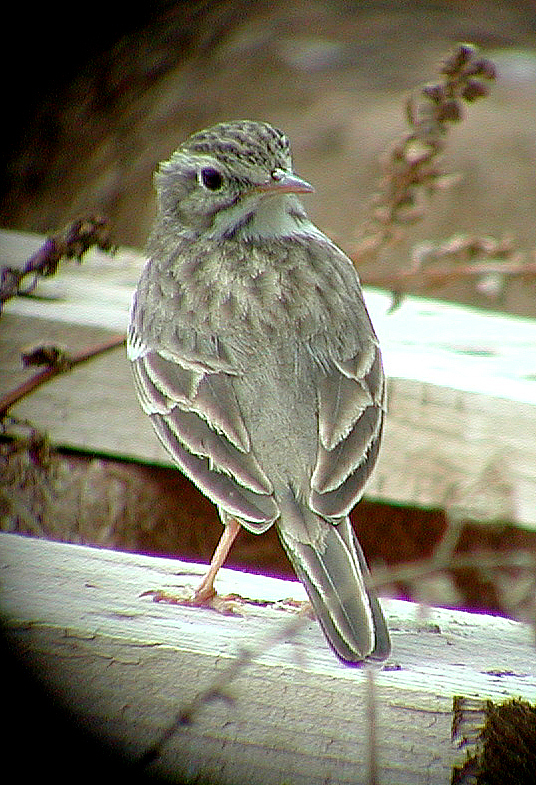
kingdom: Animalia
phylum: Chordata
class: Aves
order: Passeriformes
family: Motacillidae
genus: Anthus
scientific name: Anthus berthelotii
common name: Berthelot's pipit
